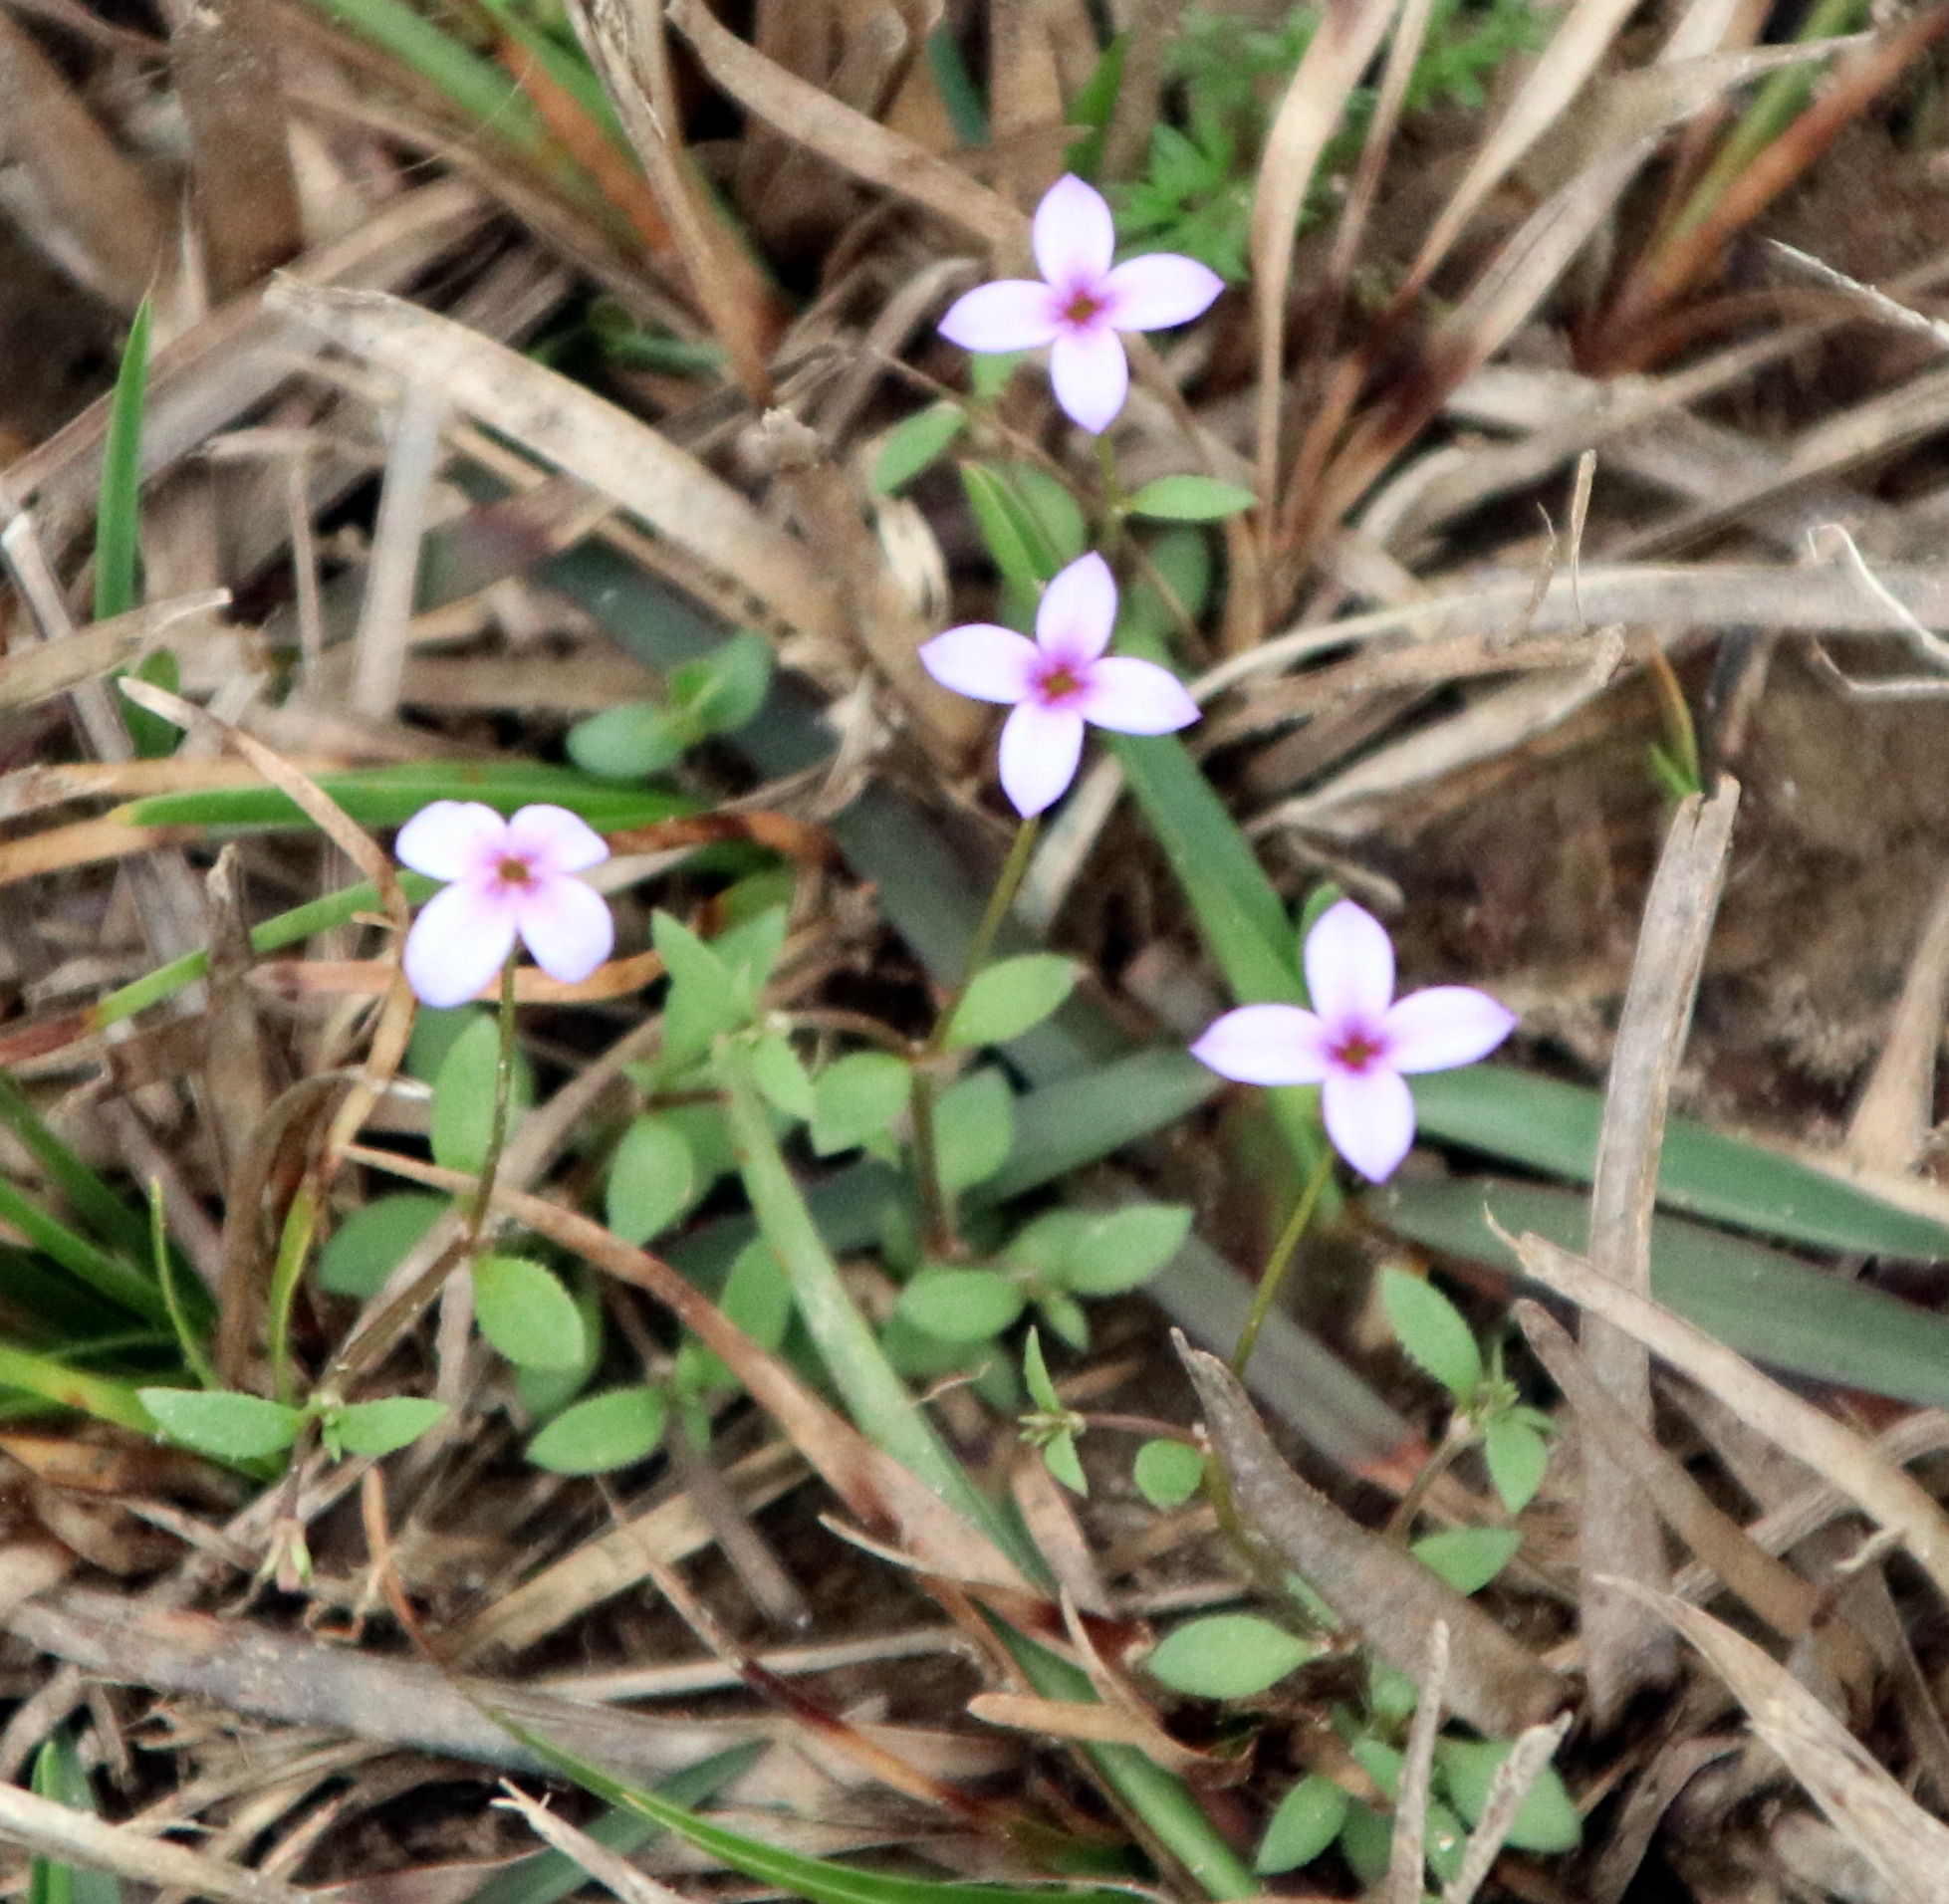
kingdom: Plantae
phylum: Tracheophyta
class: Magnoliopsida
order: Gentianales
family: Rubiaceae
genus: Houstonia
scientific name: Houstonia pusilla
